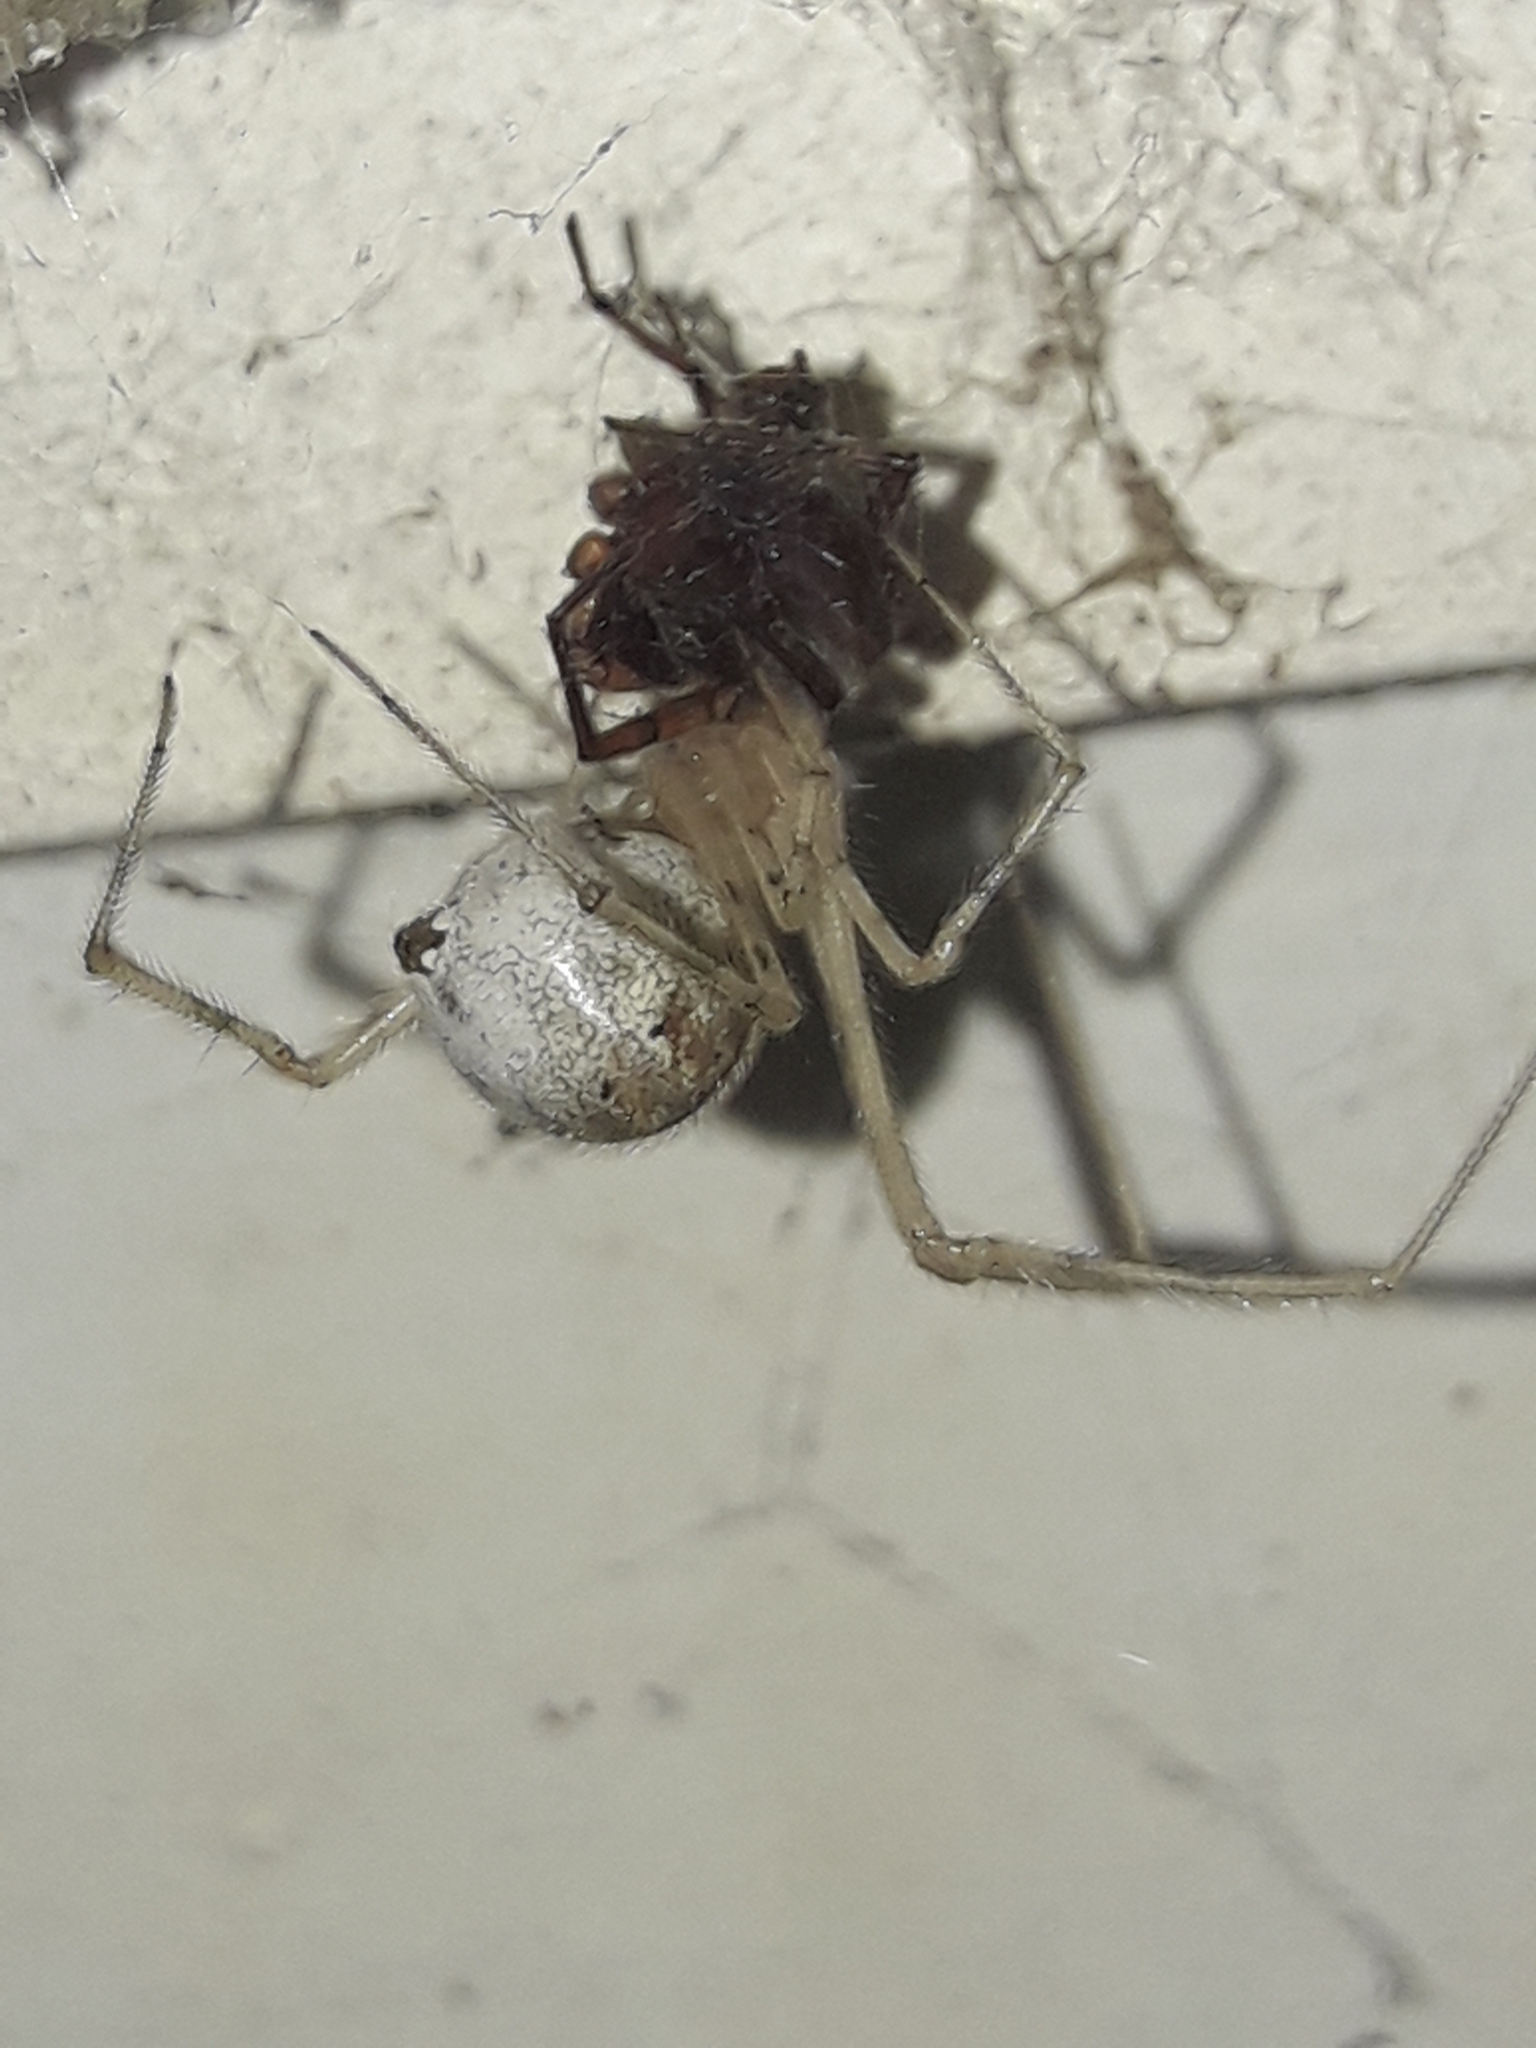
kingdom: Animalia
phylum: Arthropoda
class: Arachnida
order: Araneae
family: Theridiidae
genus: Cryptachaea
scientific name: Cryptachaea gigantipes
